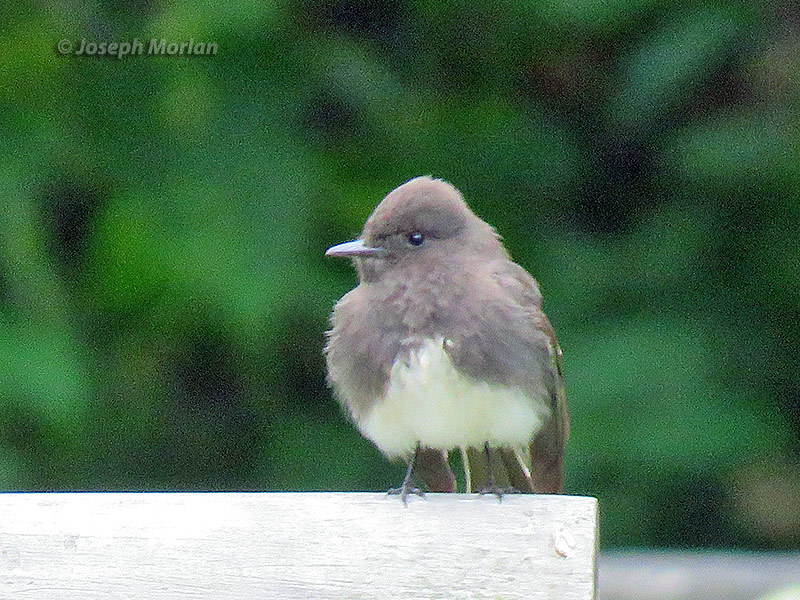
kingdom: Animalia
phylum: Chordata
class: Aves
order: Passeriformes
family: Tyrannidae
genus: Sayornis
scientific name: Sayornis nigricans
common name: Black phoebe
